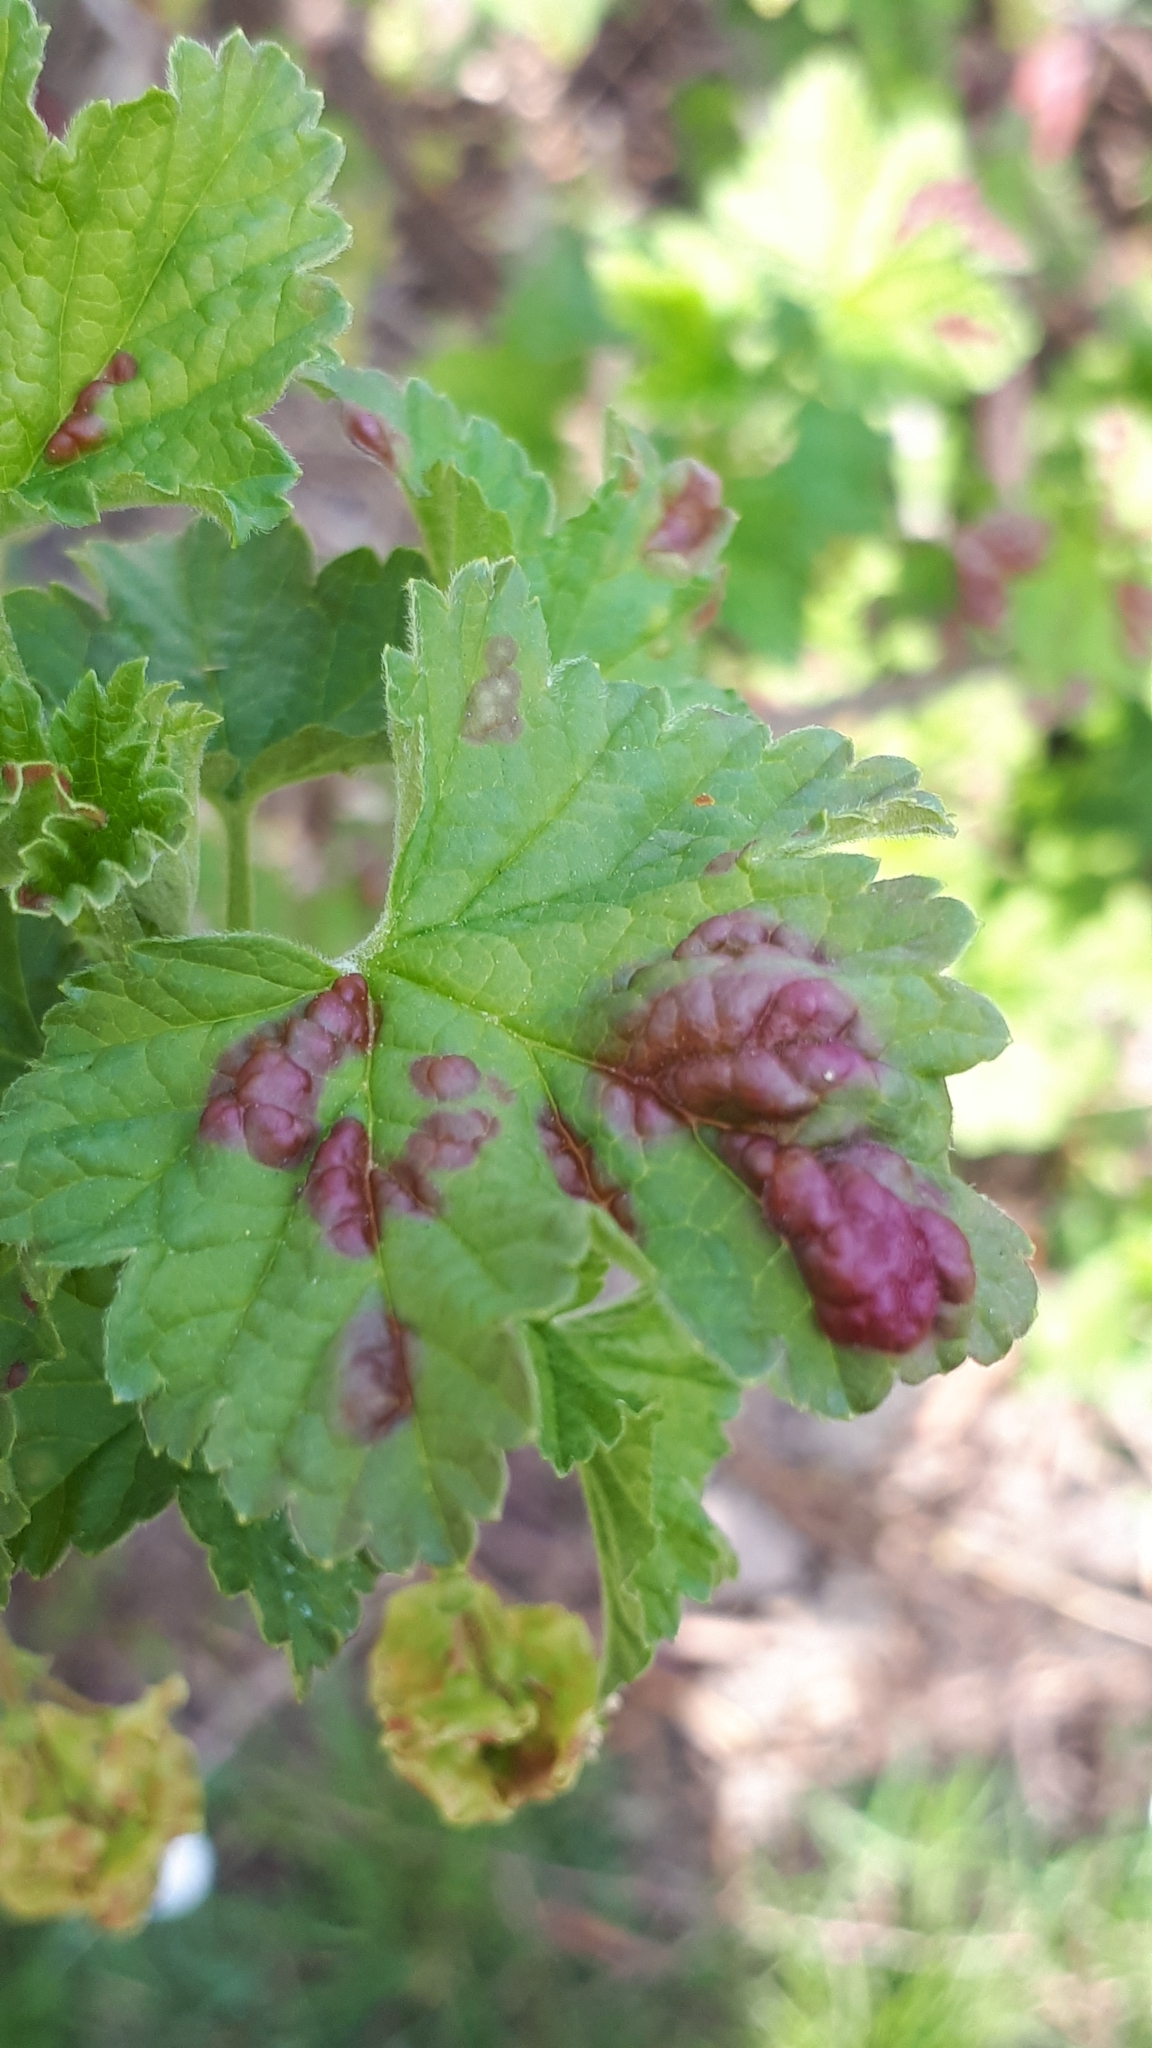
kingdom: Animalia
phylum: Arthropoda
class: Insecta
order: Hemiptera
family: Aphididae
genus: Cryptomyzus
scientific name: Cryptomyzus ribis
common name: Currant aphid
